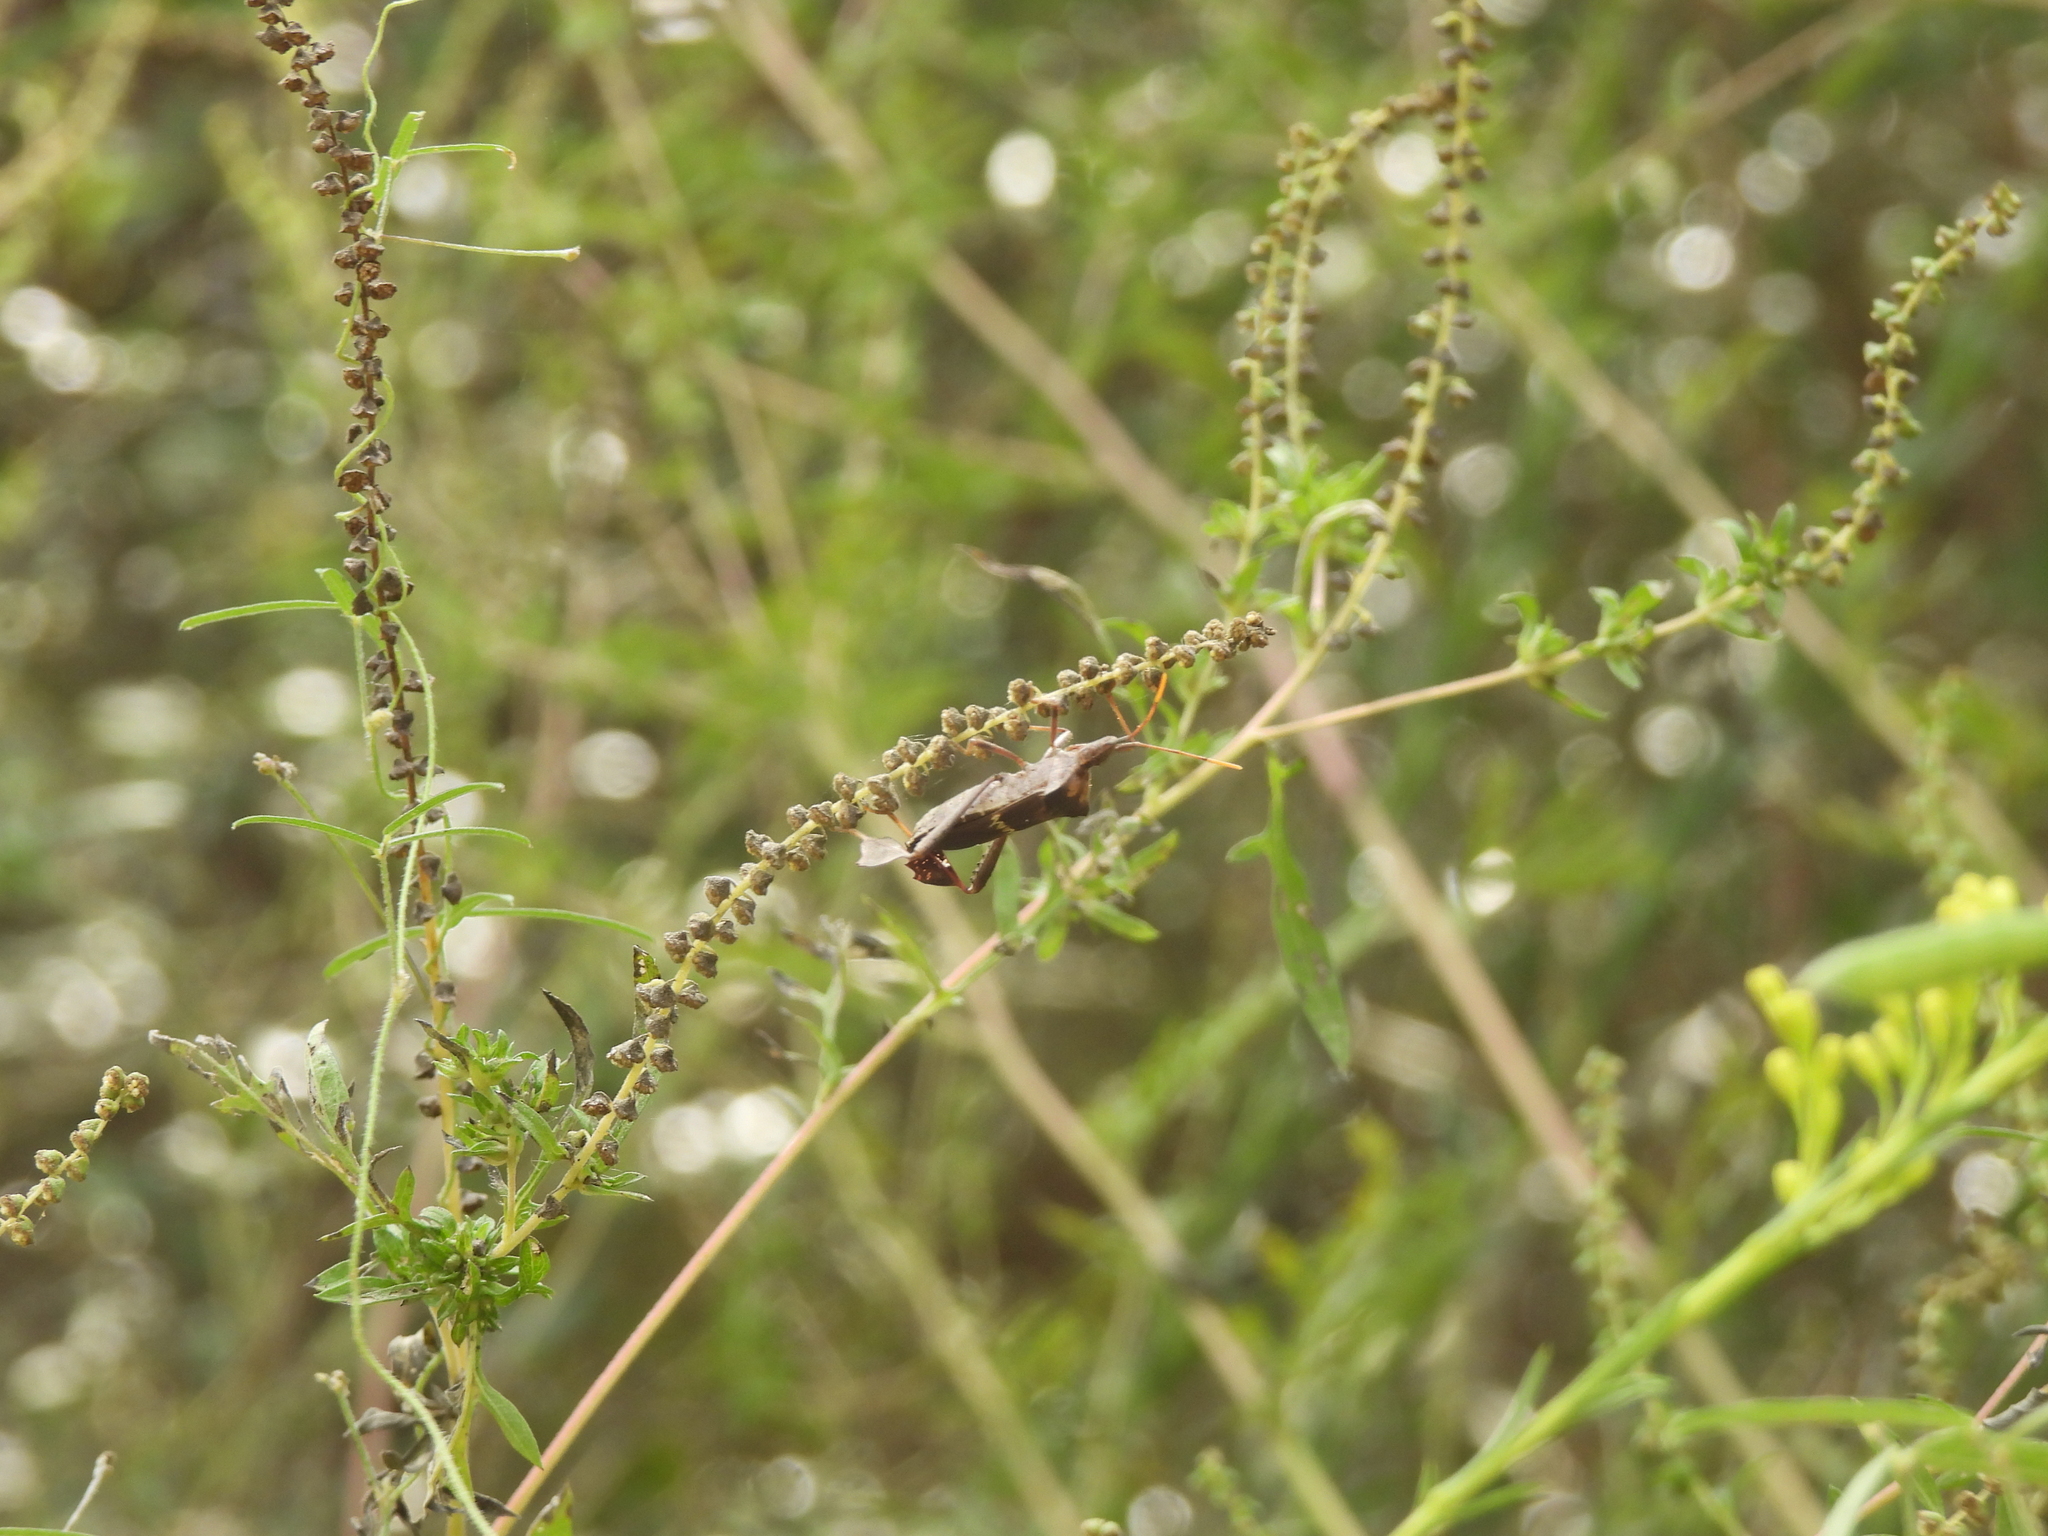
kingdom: Animalia
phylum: Arthropoda
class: Insecta
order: Hemiptera
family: Coreidae
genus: Leptoglossus
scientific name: Leptoglossus zonatus
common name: Large-legged bug
